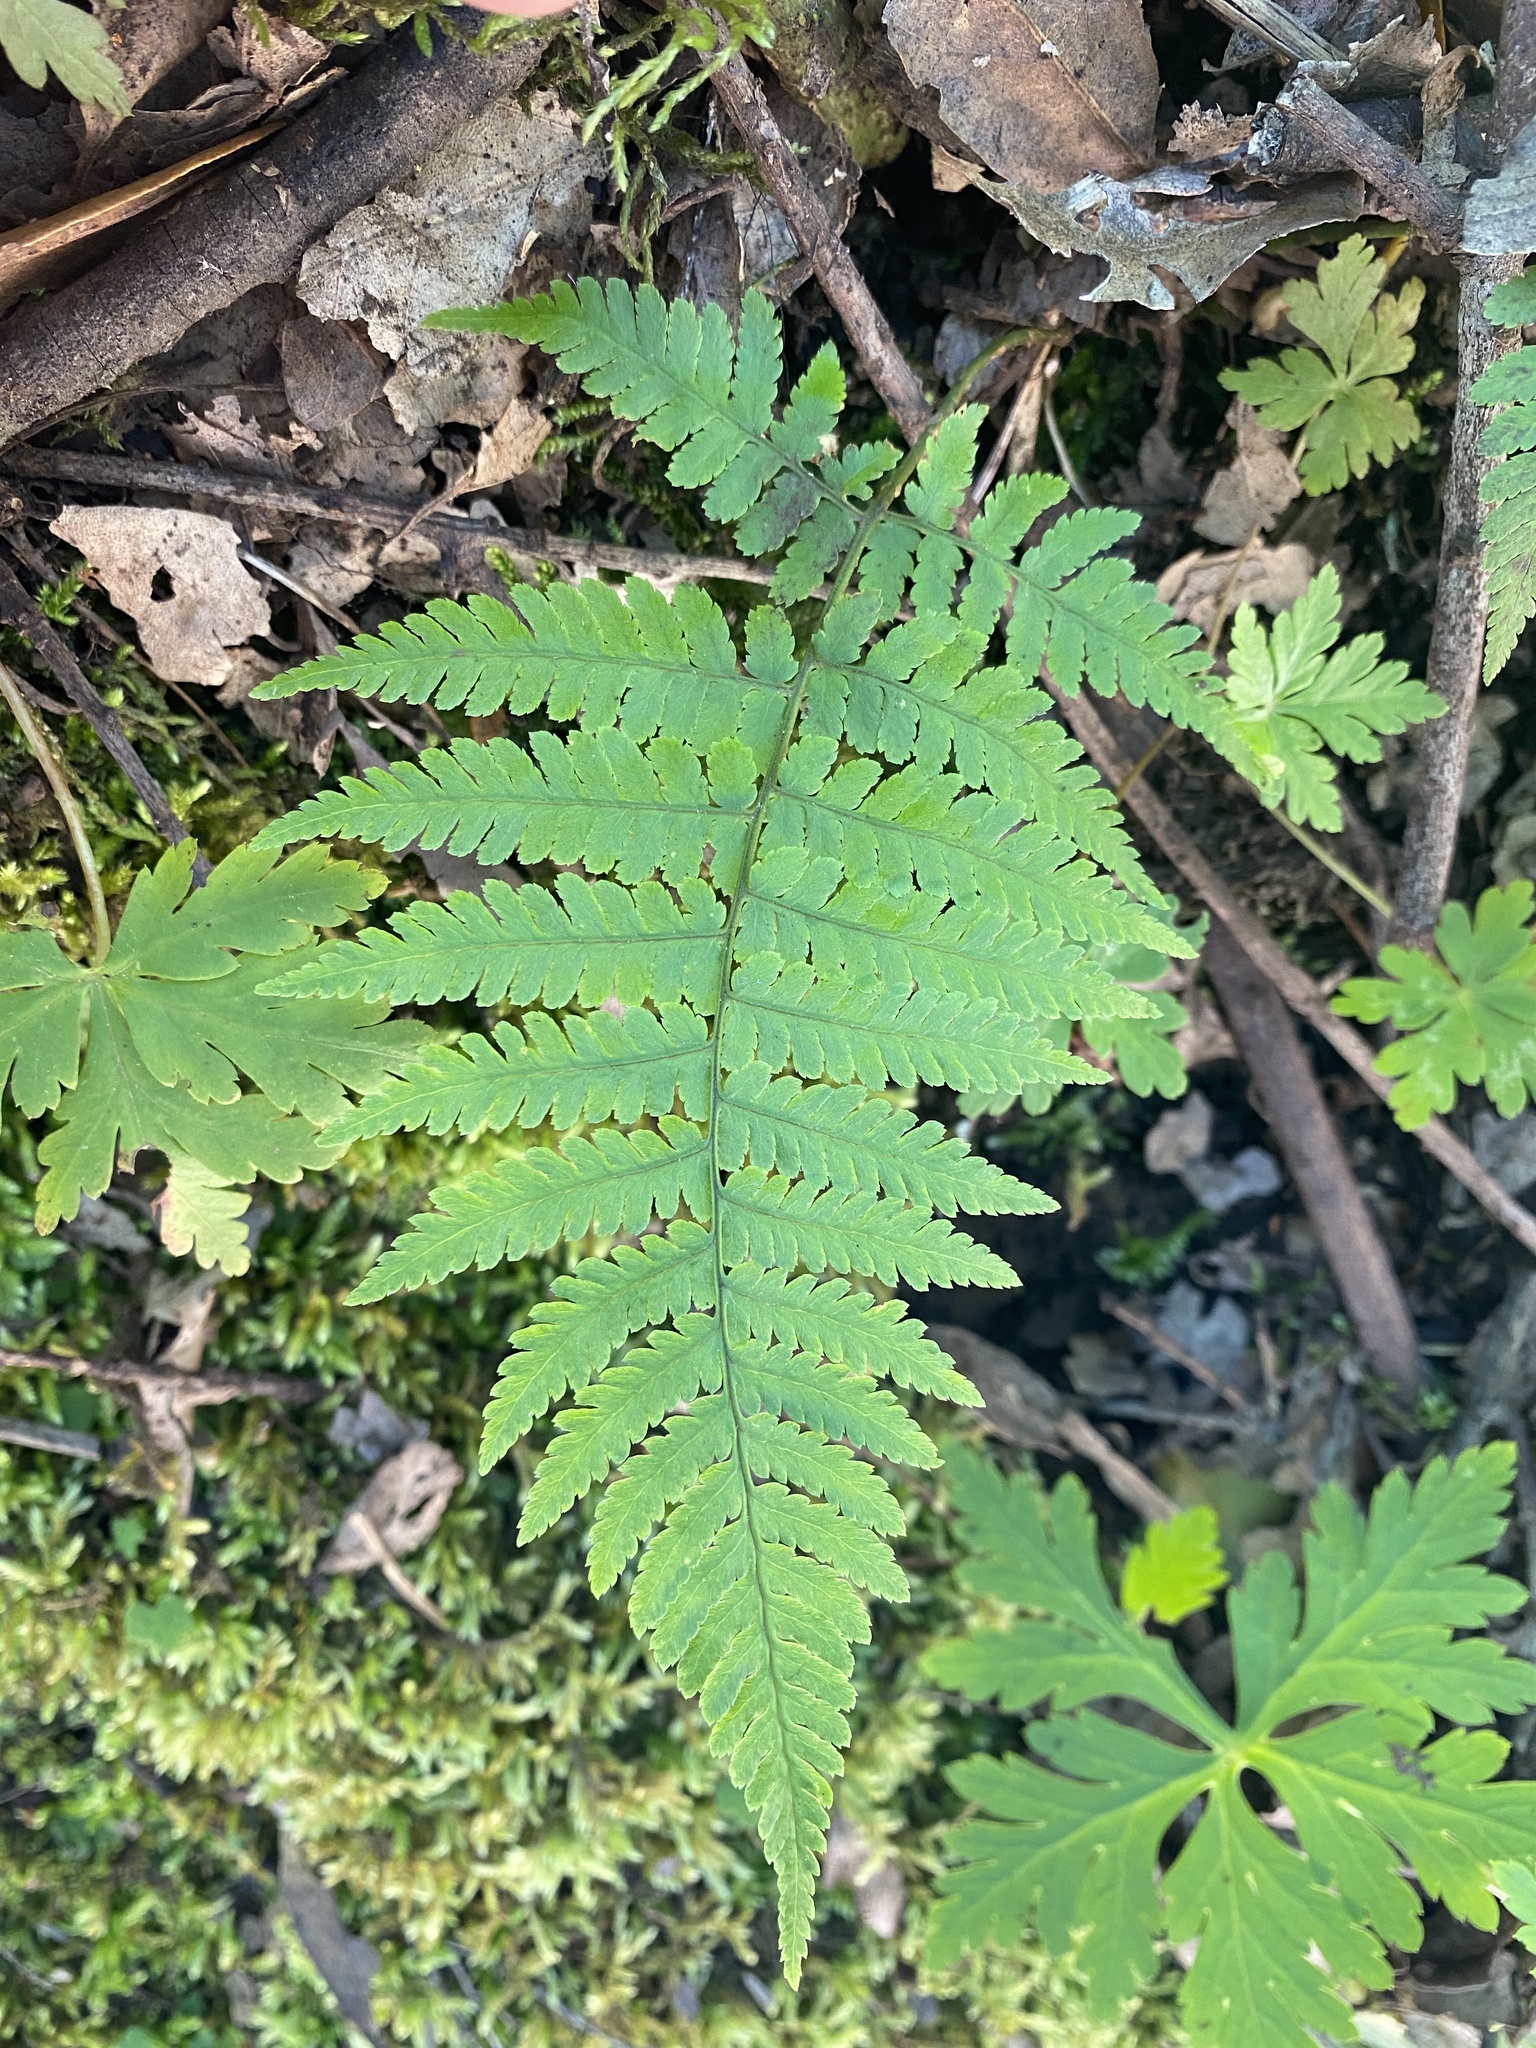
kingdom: Plantae
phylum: Tracheophyta
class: Polypodiopsida
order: Polypodiales
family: Dryopteridaceae
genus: Dryopteris
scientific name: Dryopteris oligodonta
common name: Canarian male-fern
